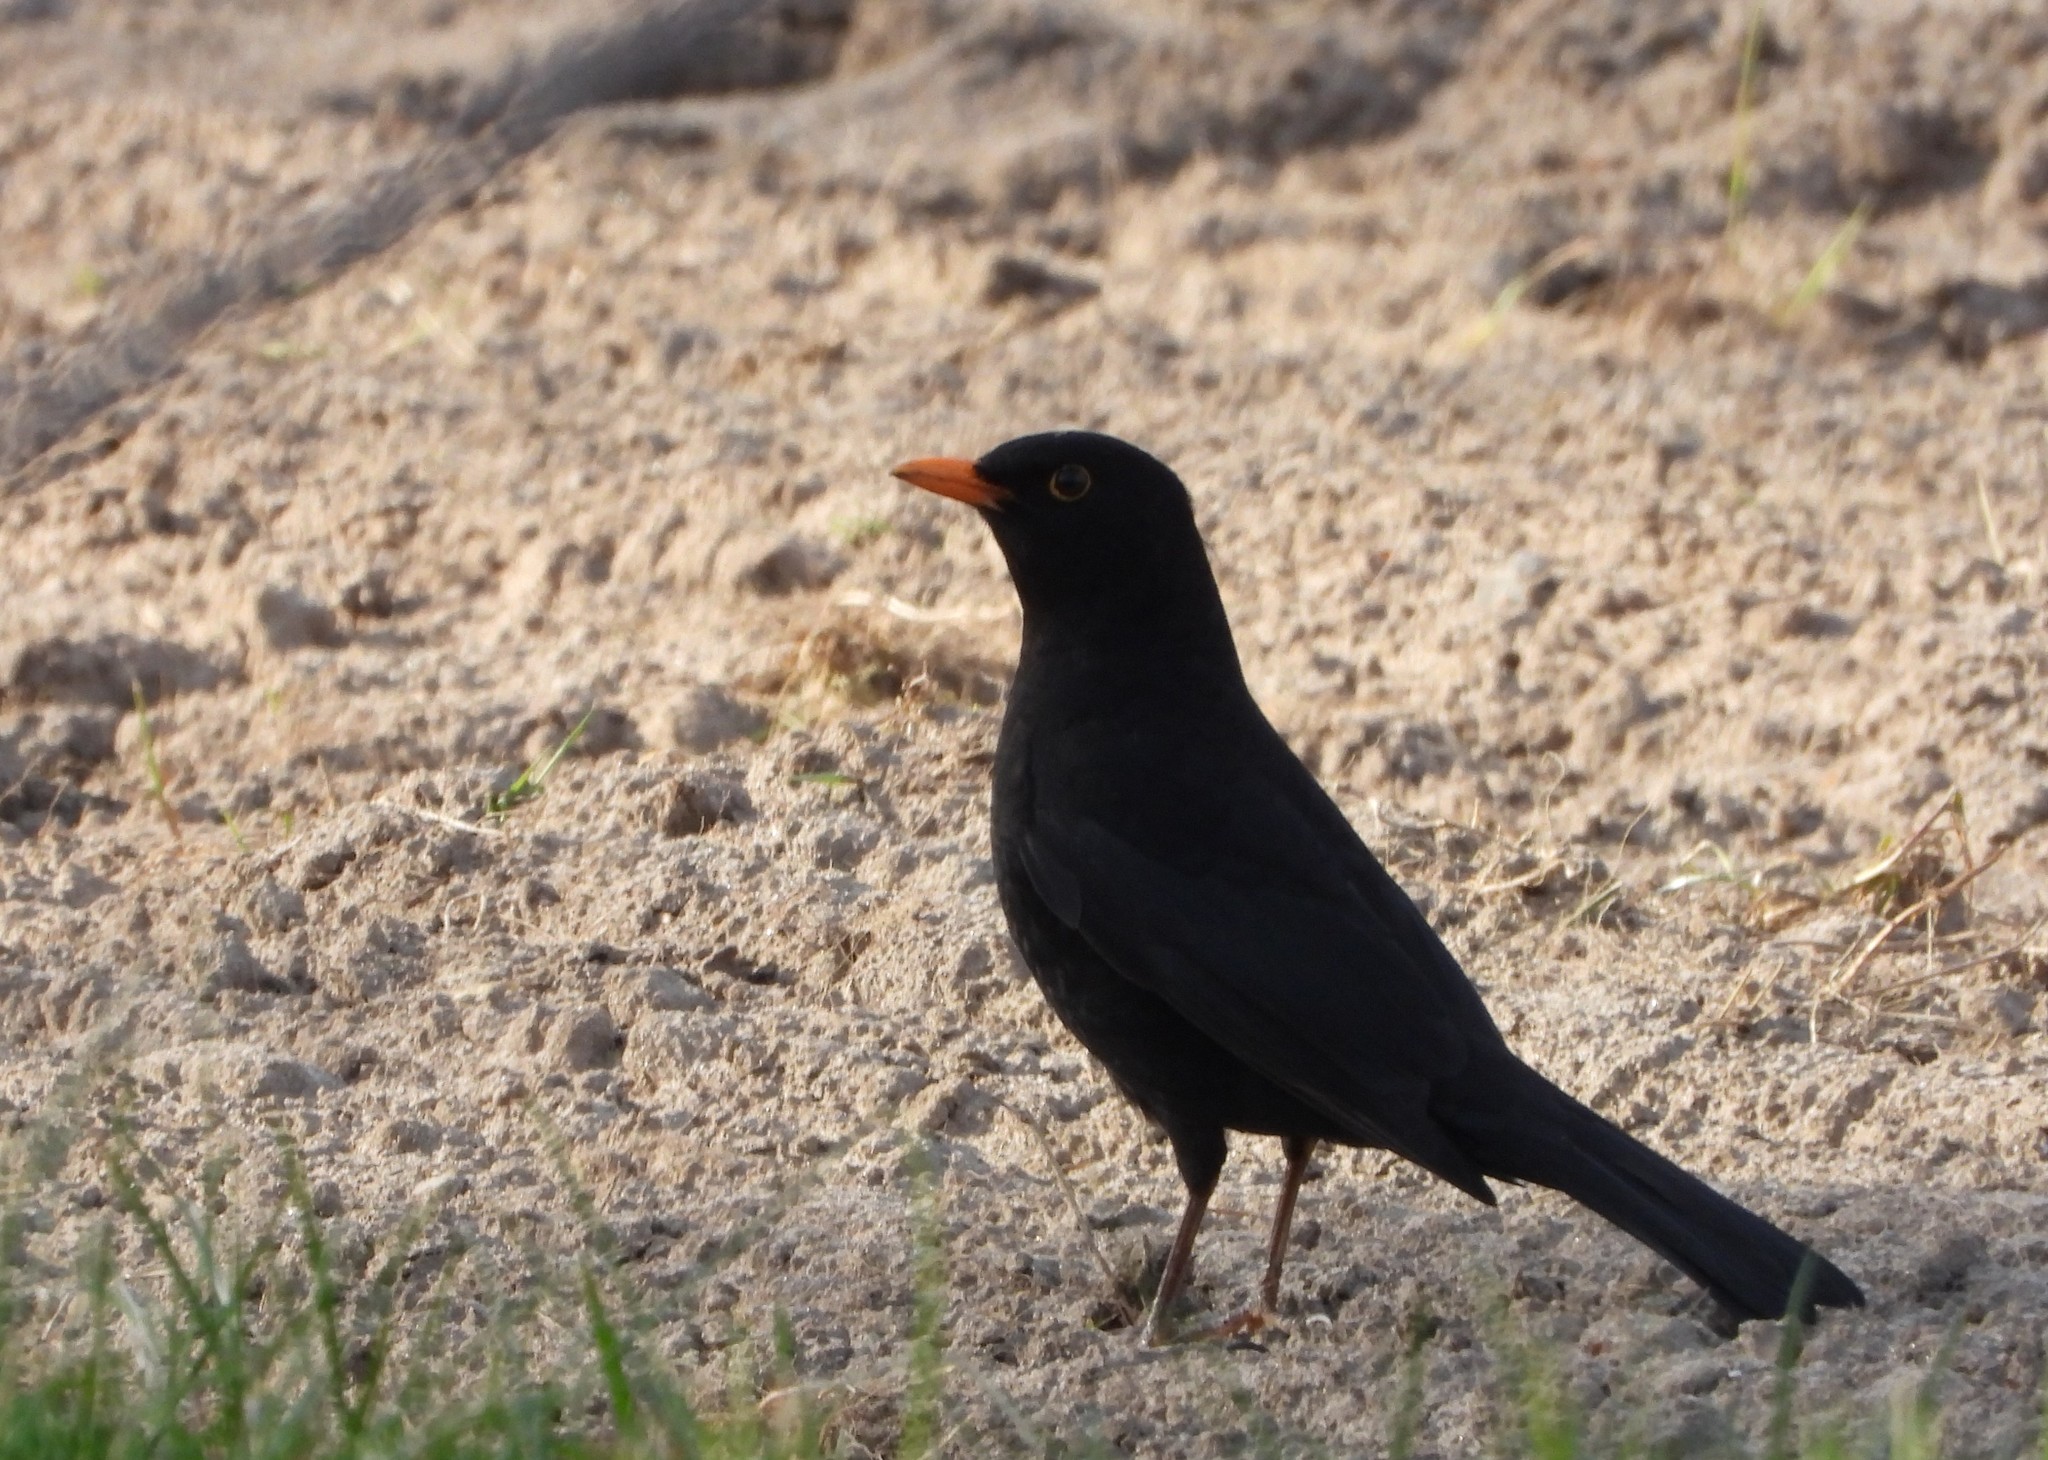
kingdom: Animalia
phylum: Chordata
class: Aves
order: Passeriformes
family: Turdidae
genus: Turdus
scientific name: Turdus merula
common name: Common blackbird
